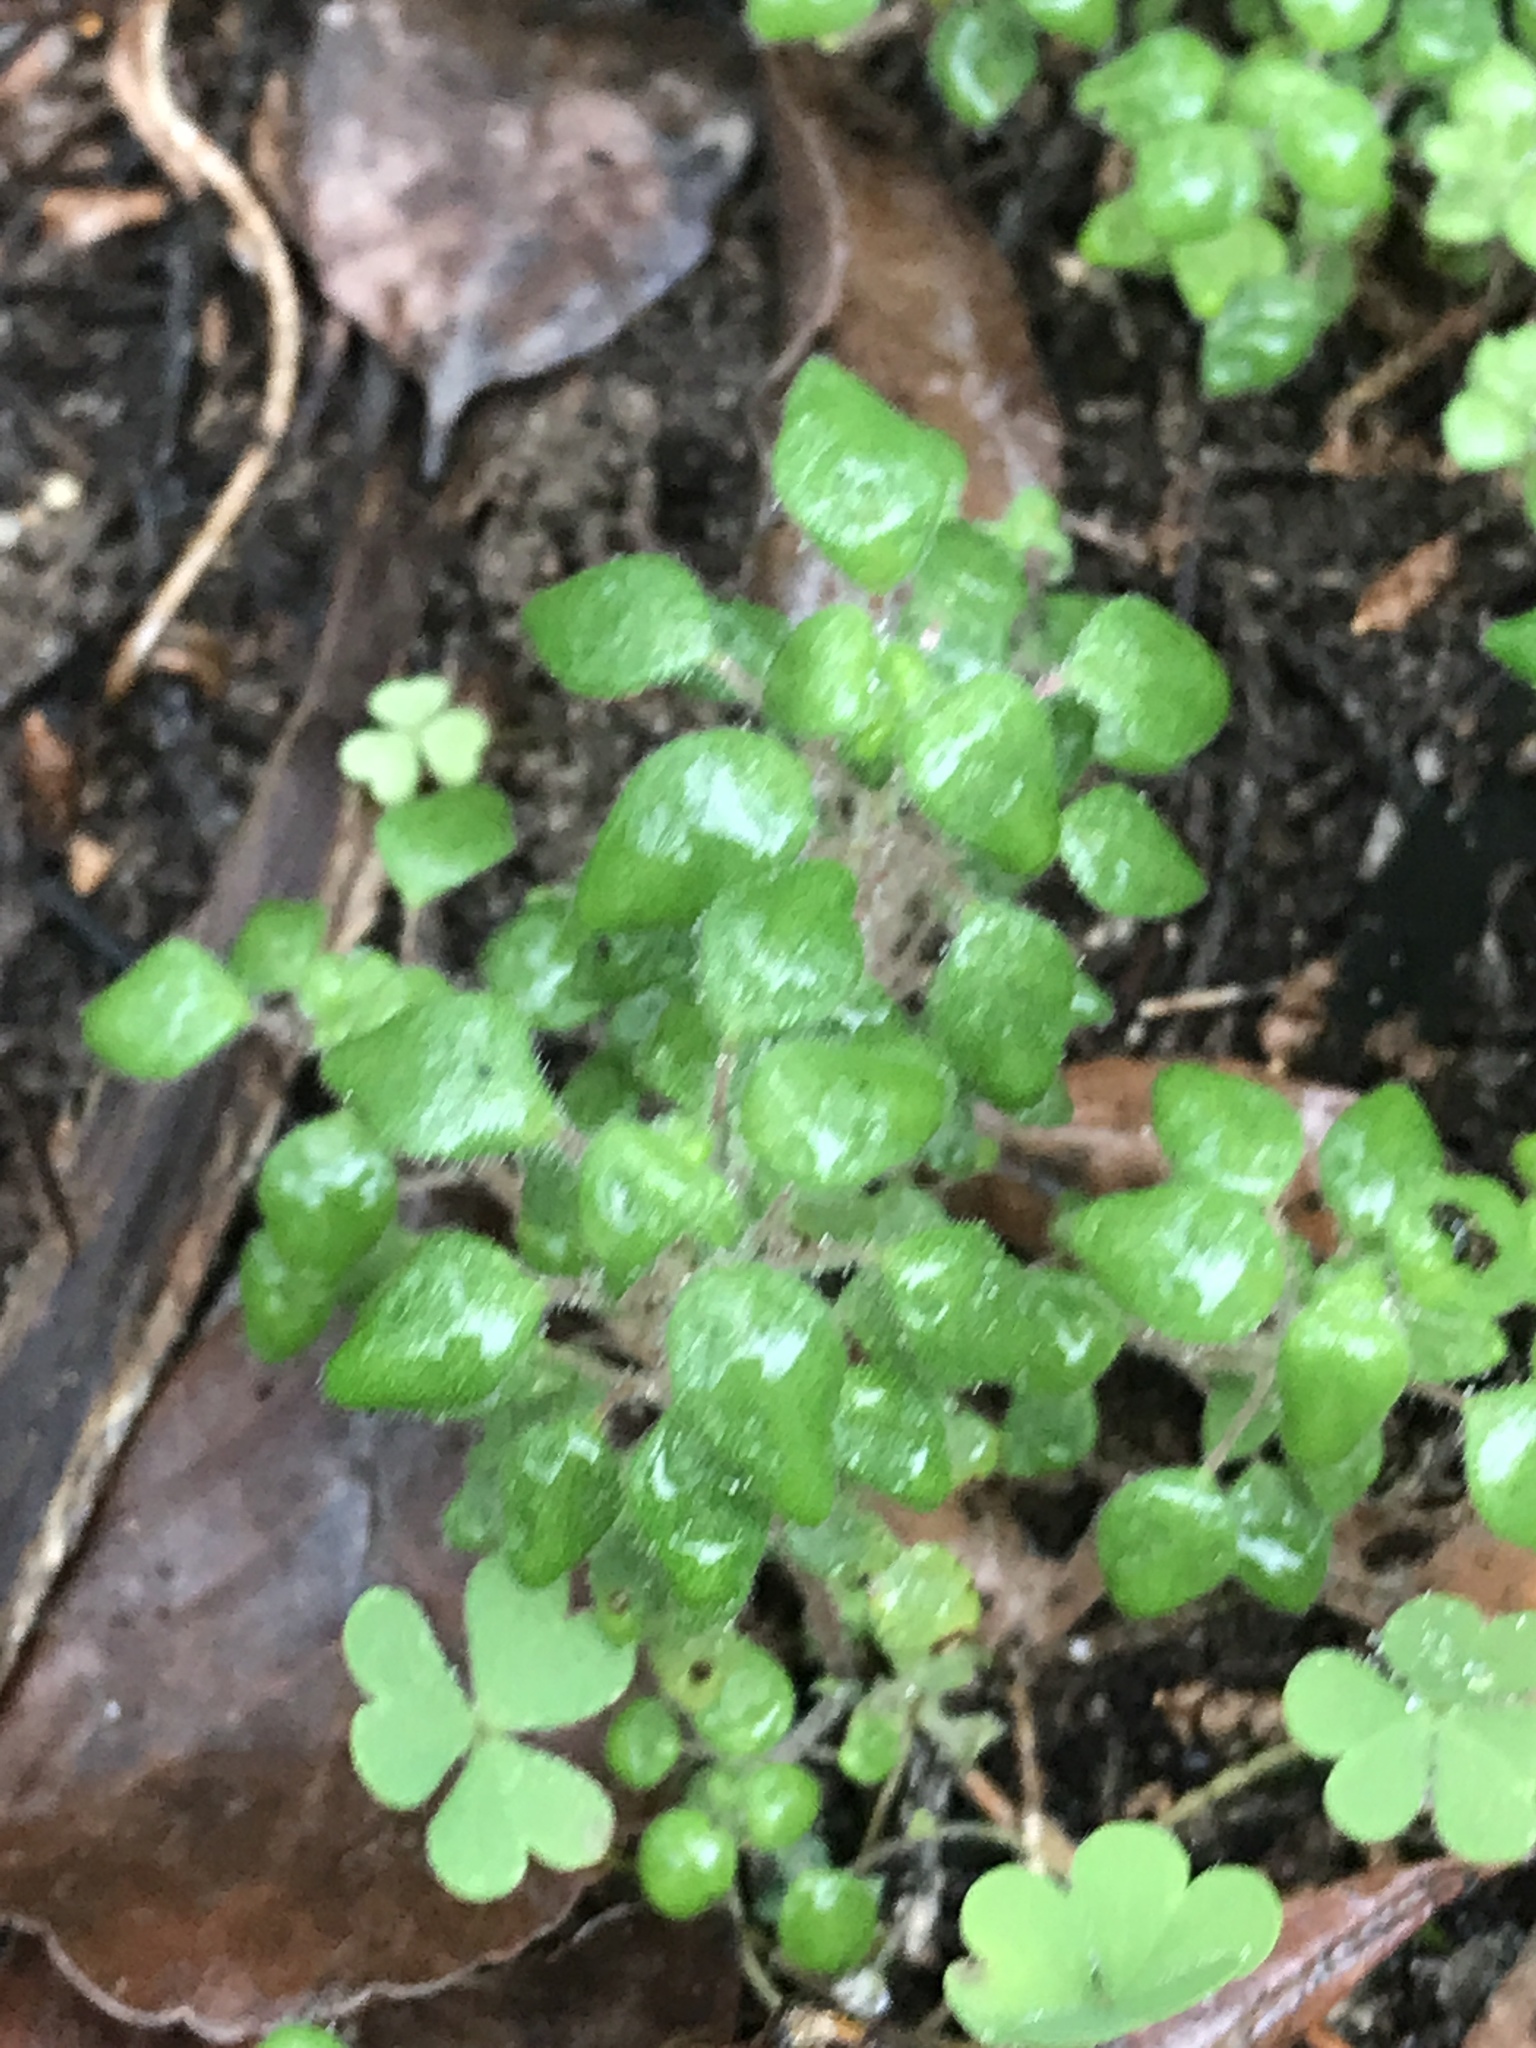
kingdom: Plantae
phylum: Tracheophyta
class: Magnoliopsida
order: Rosales
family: Urticaceae
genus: Parietaria
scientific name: Parietaria pensylvanica
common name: Pennsylvania pellitory
